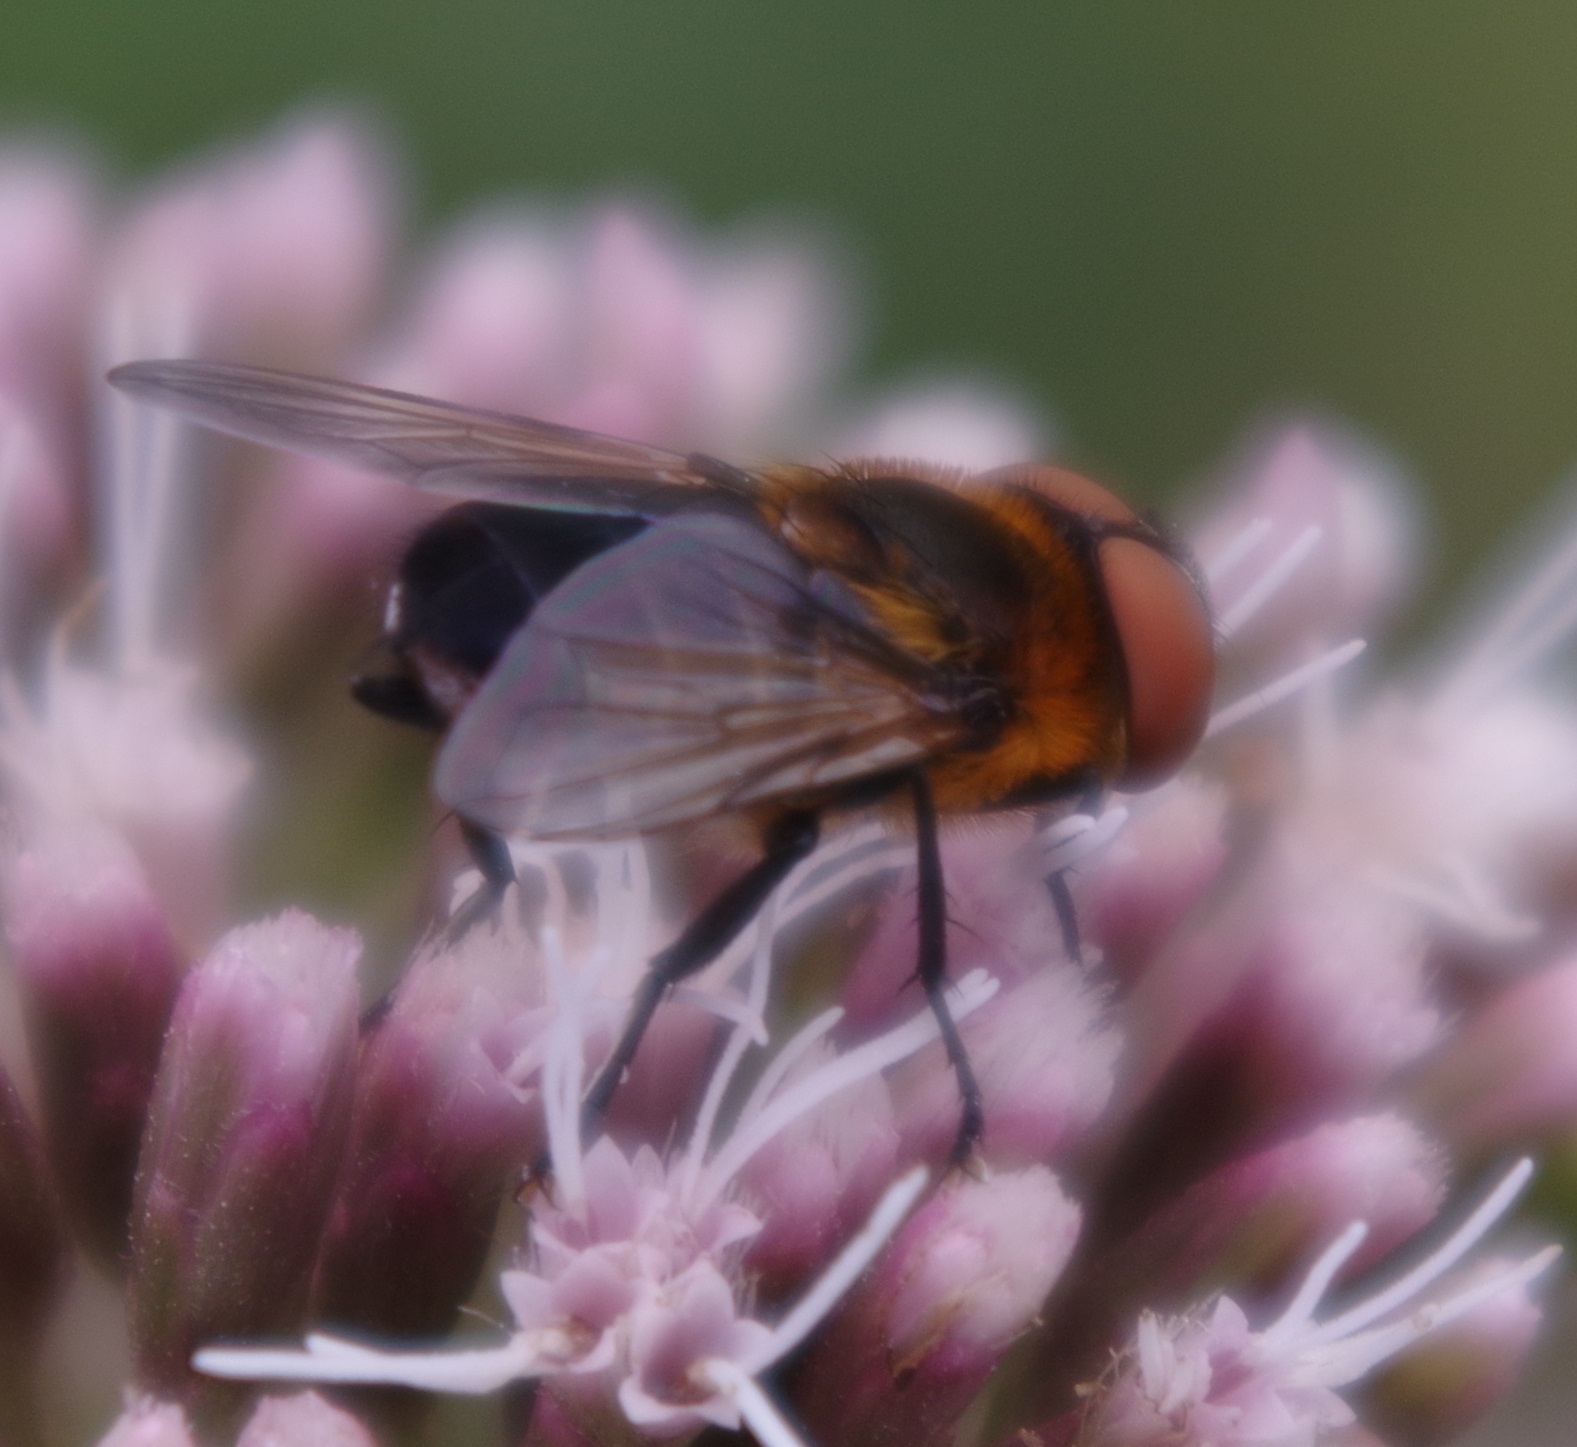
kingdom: Animalia
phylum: Arthropoda
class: Insecta
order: Diptera
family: Tachinidae
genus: Phasia
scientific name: Phasia hemiptera
